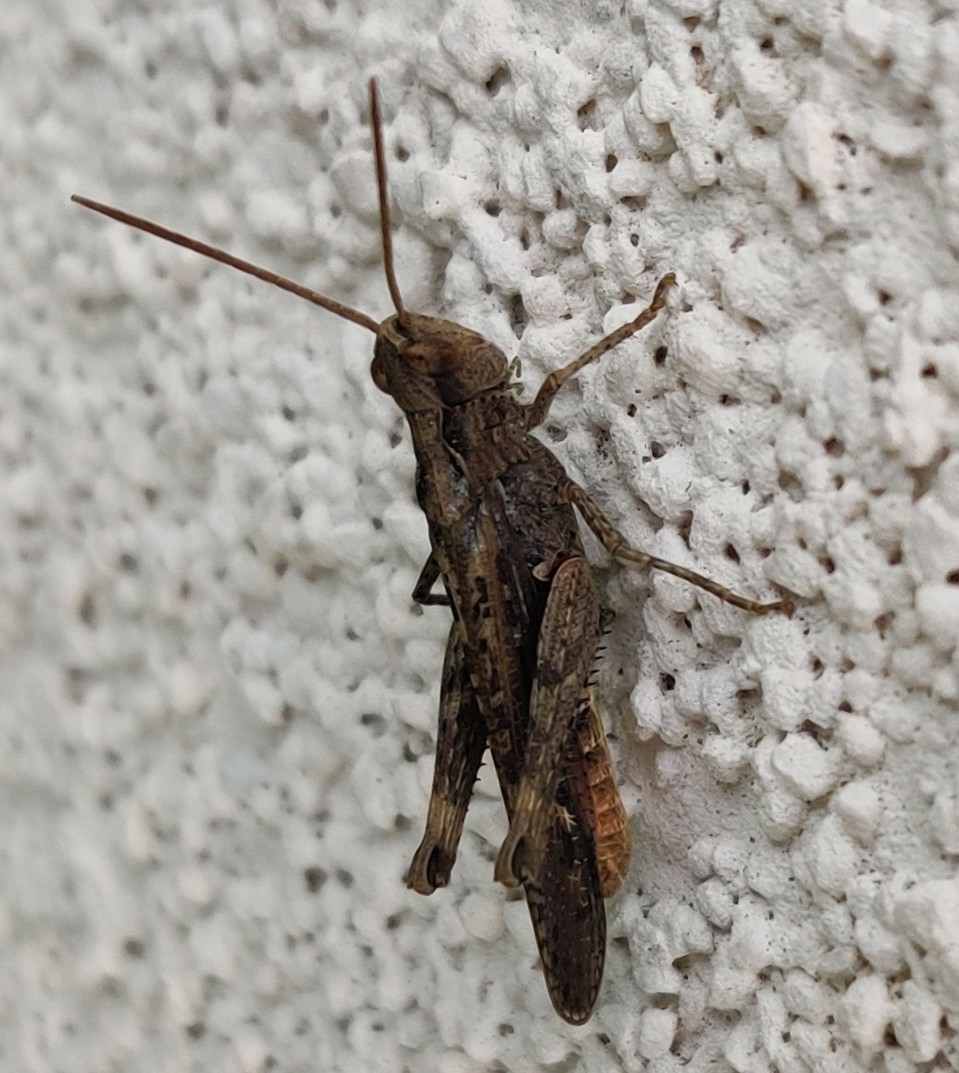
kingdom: Animalia
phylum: Arthropoda
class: Insecta
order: Orthoptera
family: Acrididae
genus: Chorthippus
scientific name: Chorthippus brunneus
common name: Field grasshopper
